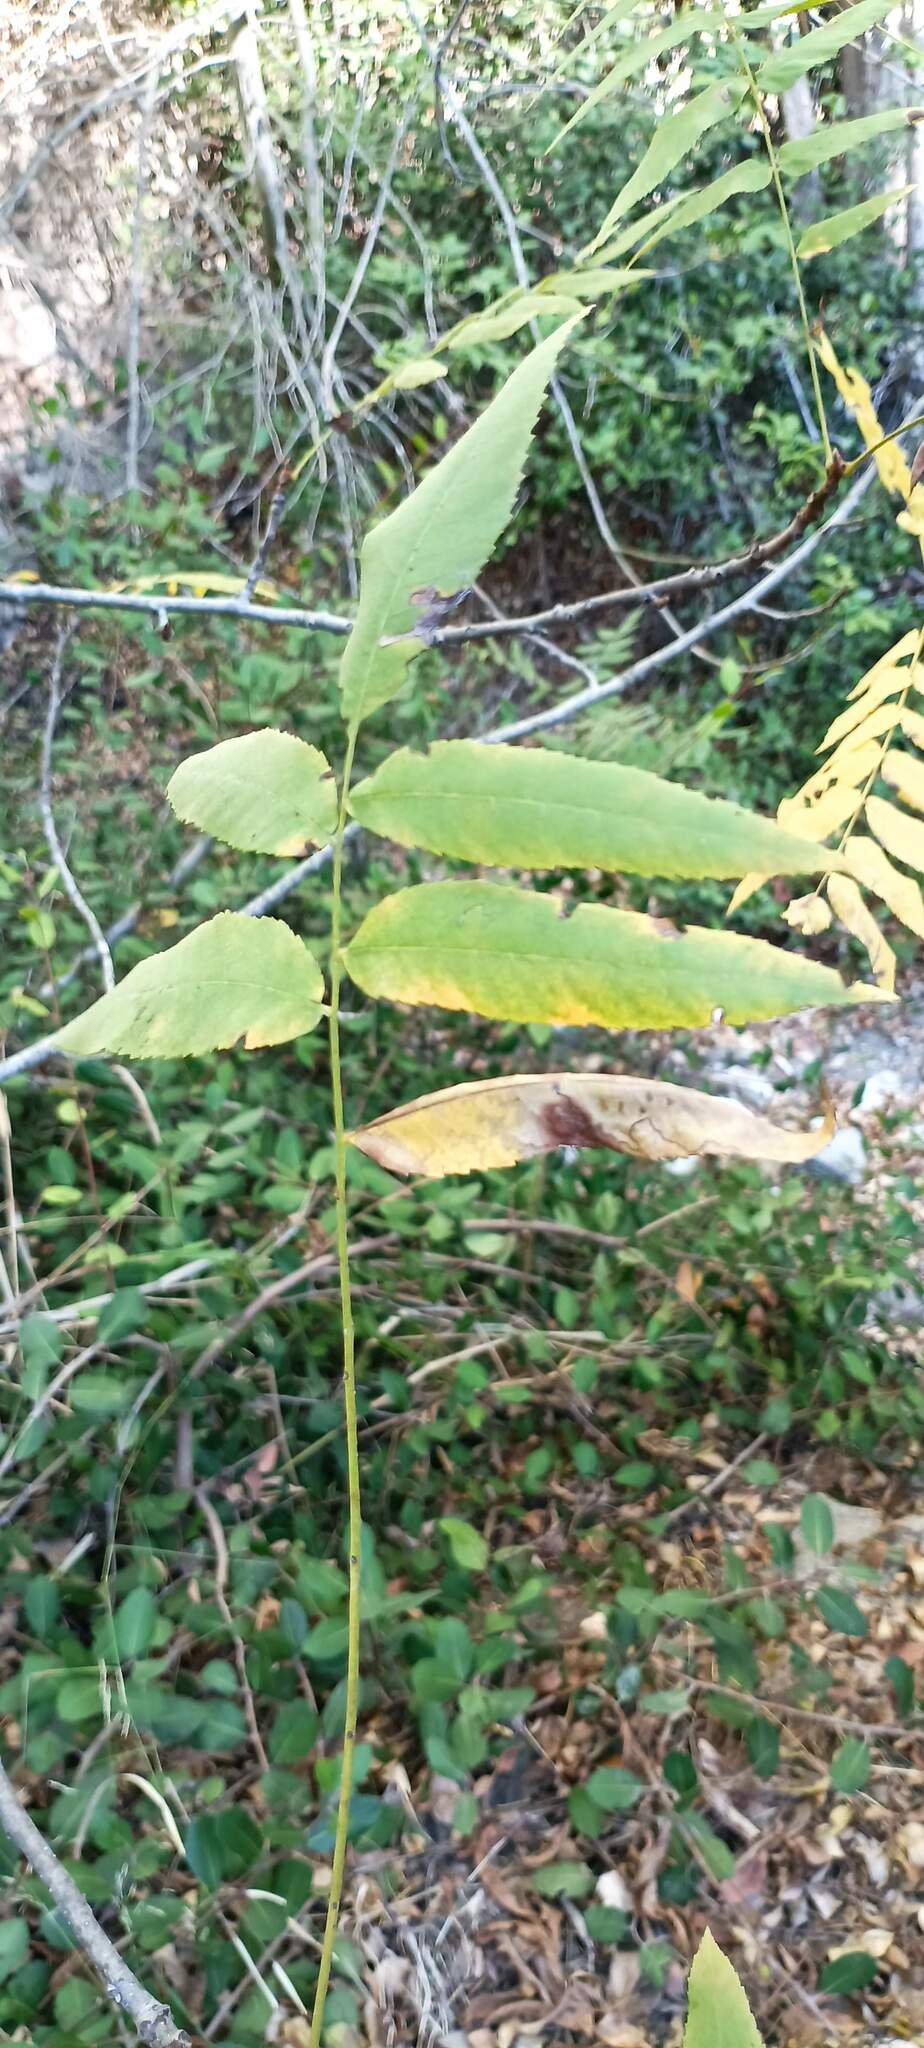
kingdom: Plantae
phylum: Tracheophyta
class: Magnoliopsida
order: Fagales
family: Juglandaceae
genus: Juglans
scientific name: Juglans californica
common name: Southern california black walnut
